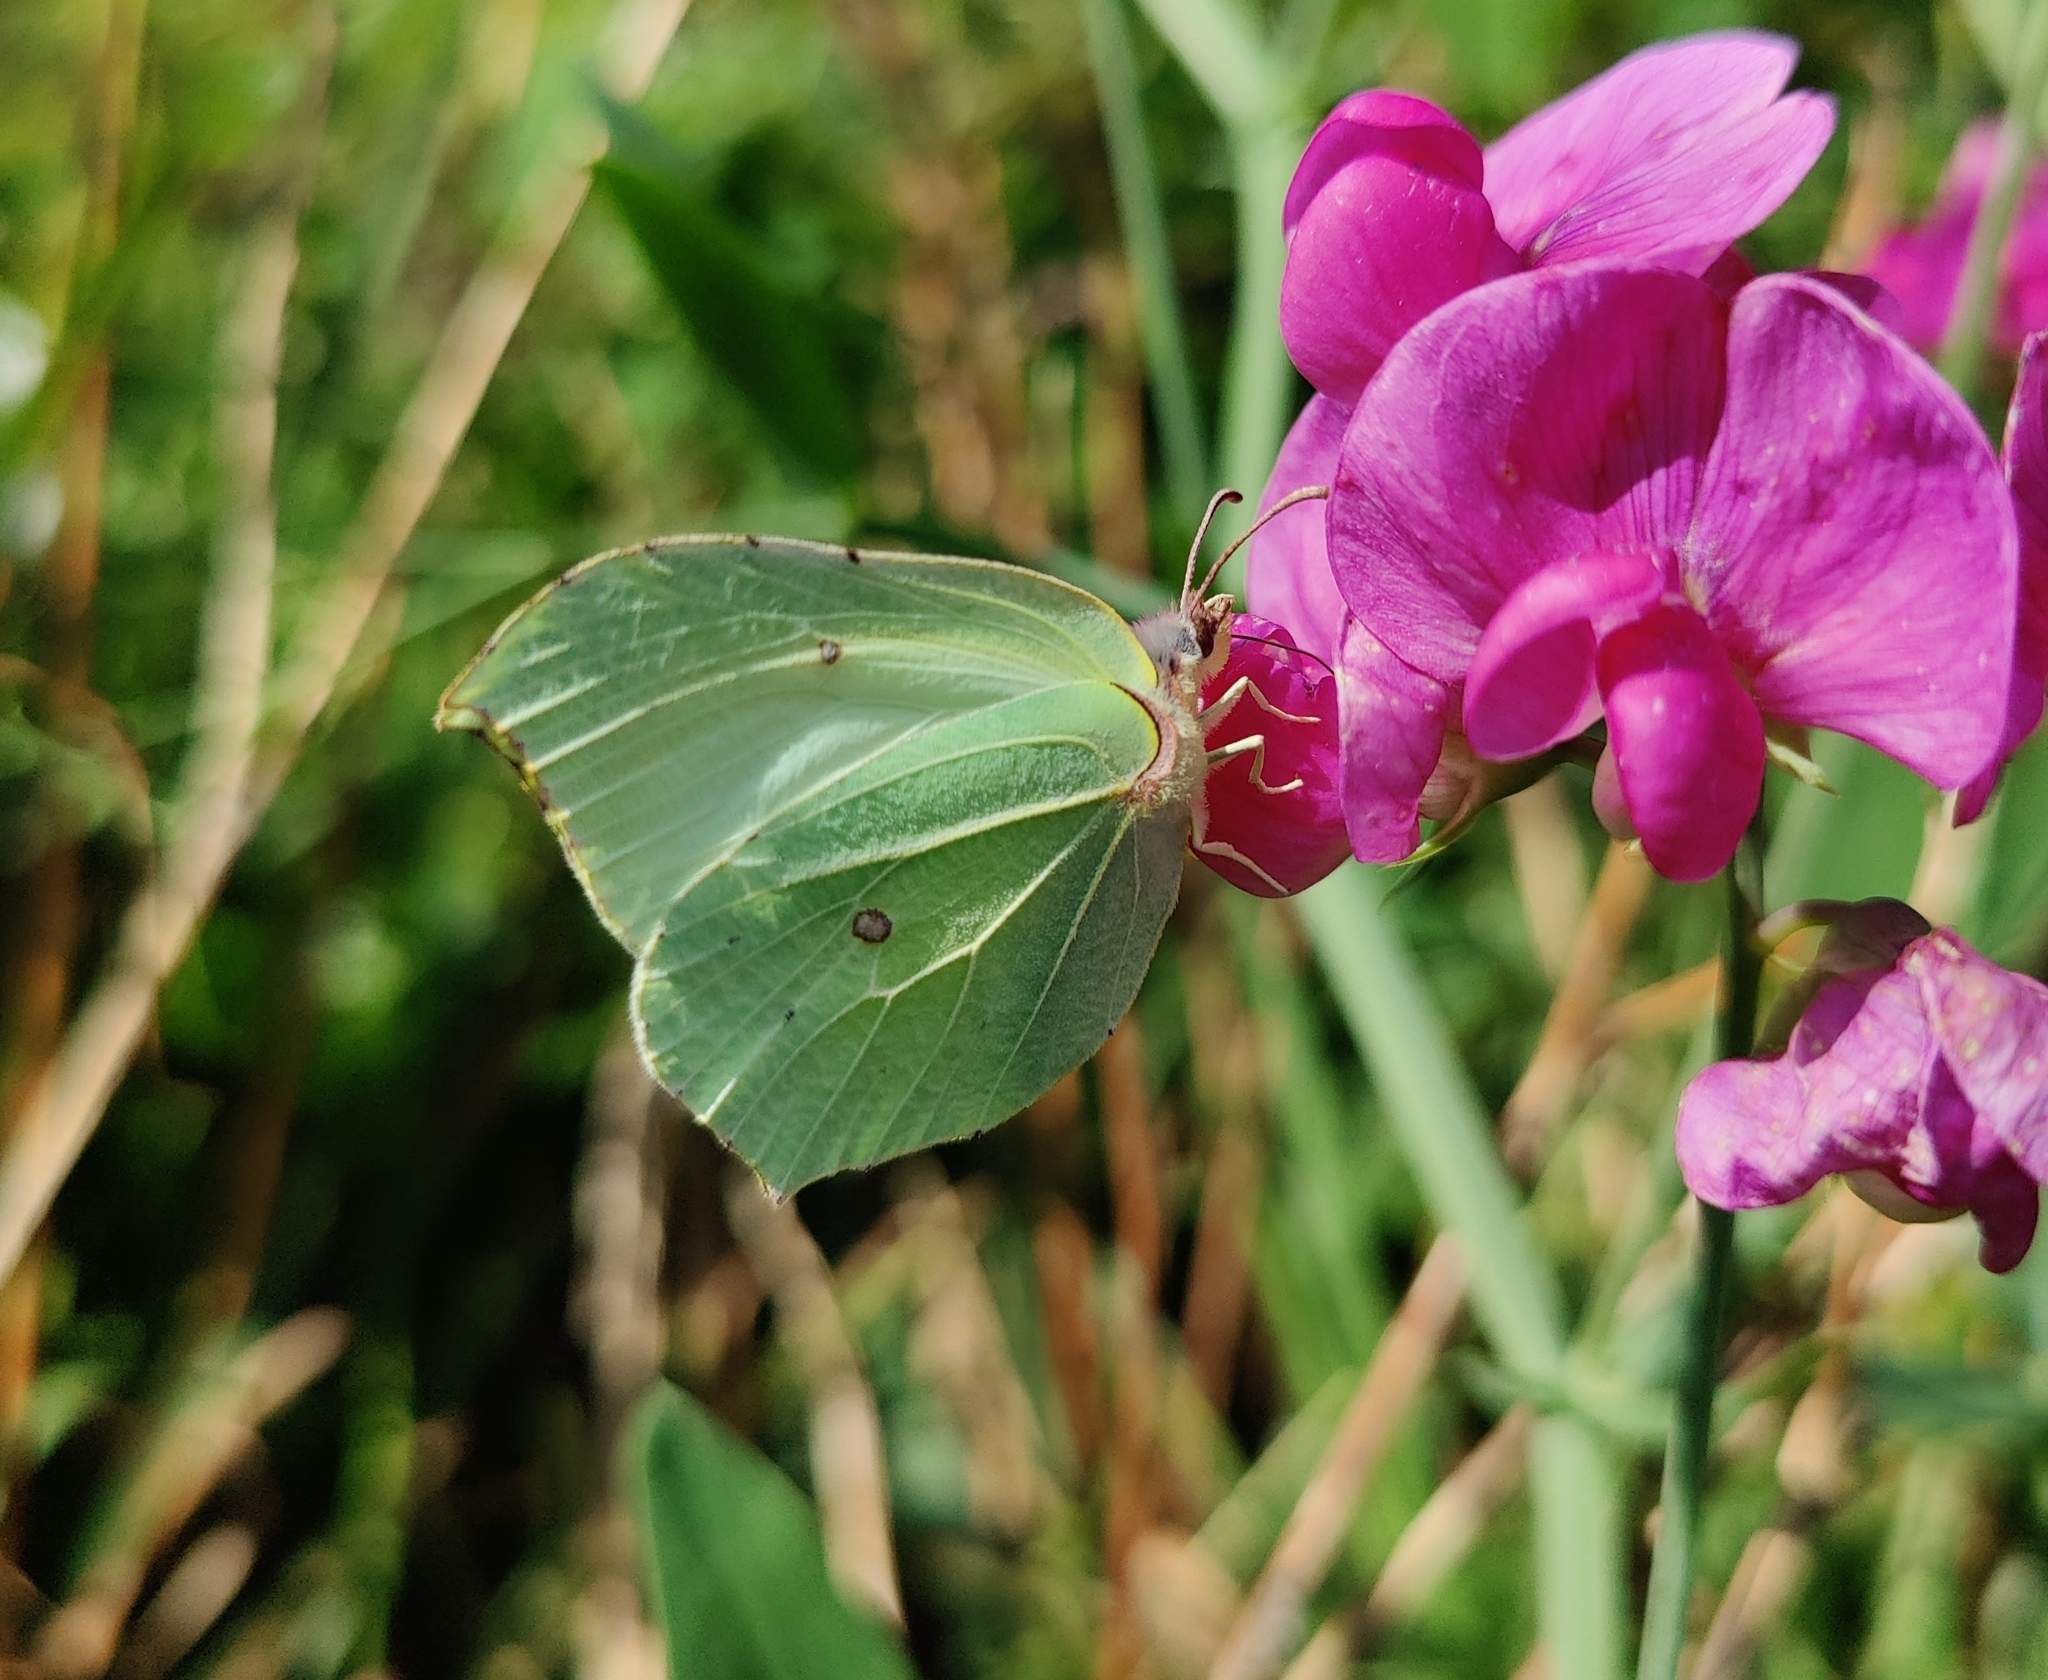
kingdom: Animalia
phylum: Arthropoda
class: Insecta
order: Lepidoptera
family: Pieridae
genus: Gonepteryx
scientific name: Gonepteryx rhamni
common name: Brimstone
